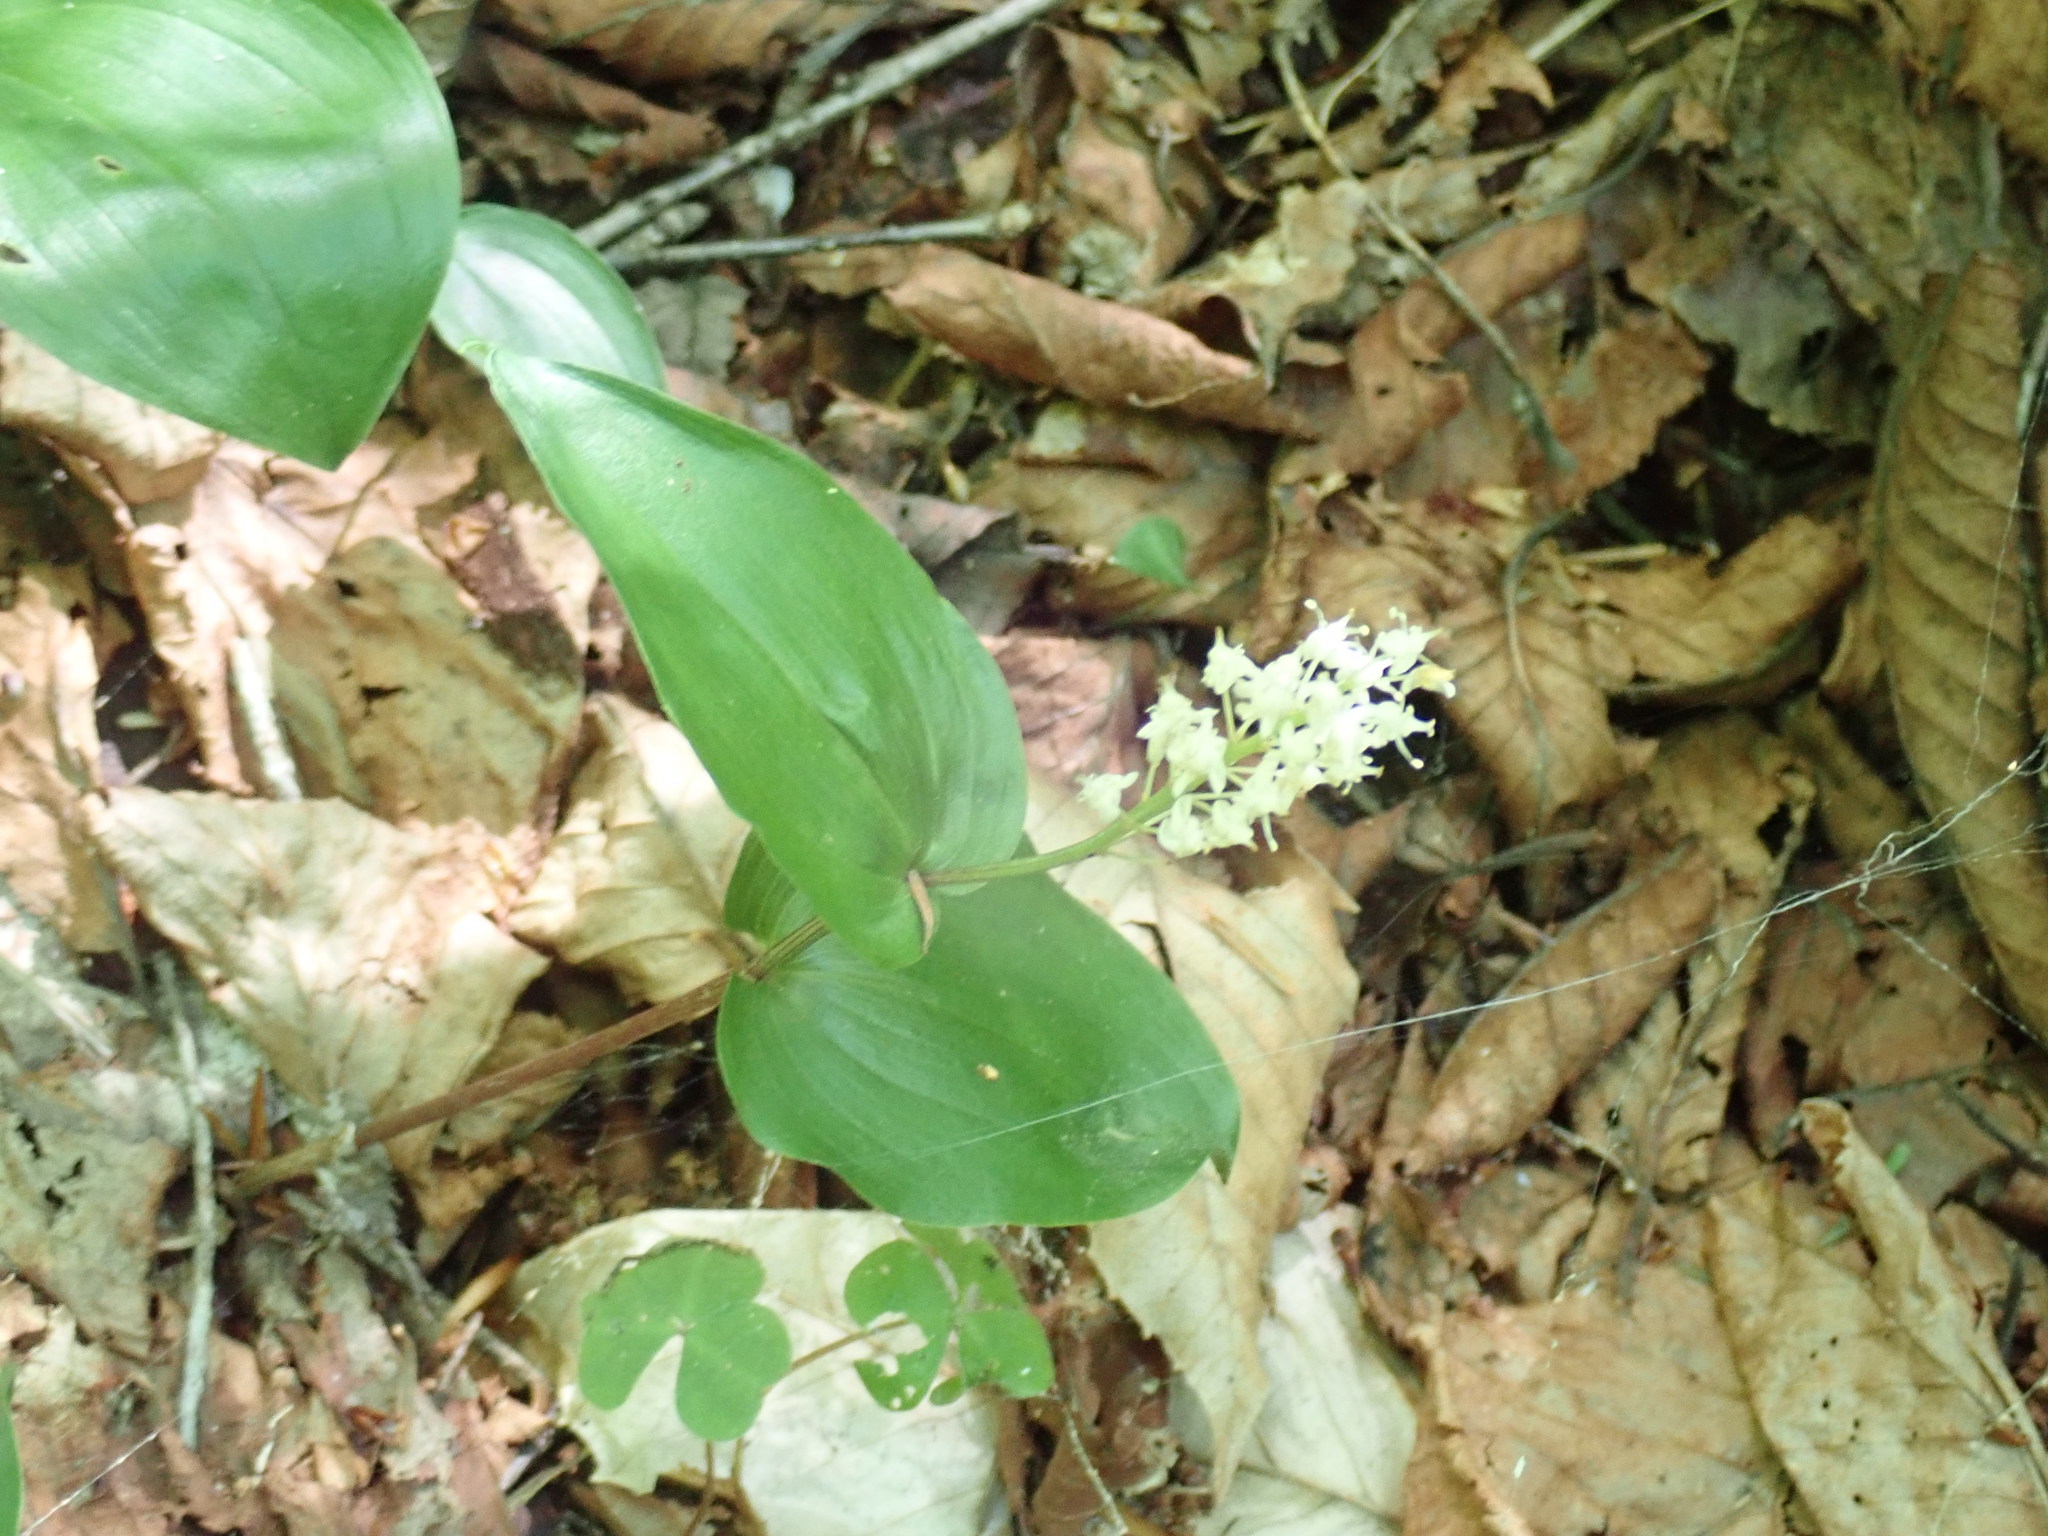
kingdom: Plantae
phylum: Tracheophyta
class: Liliopsida
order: Asparagales
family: Asparagaceae
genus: Maianthemum
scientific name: Maianthemum canadense
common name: False lily-of-the-valley
